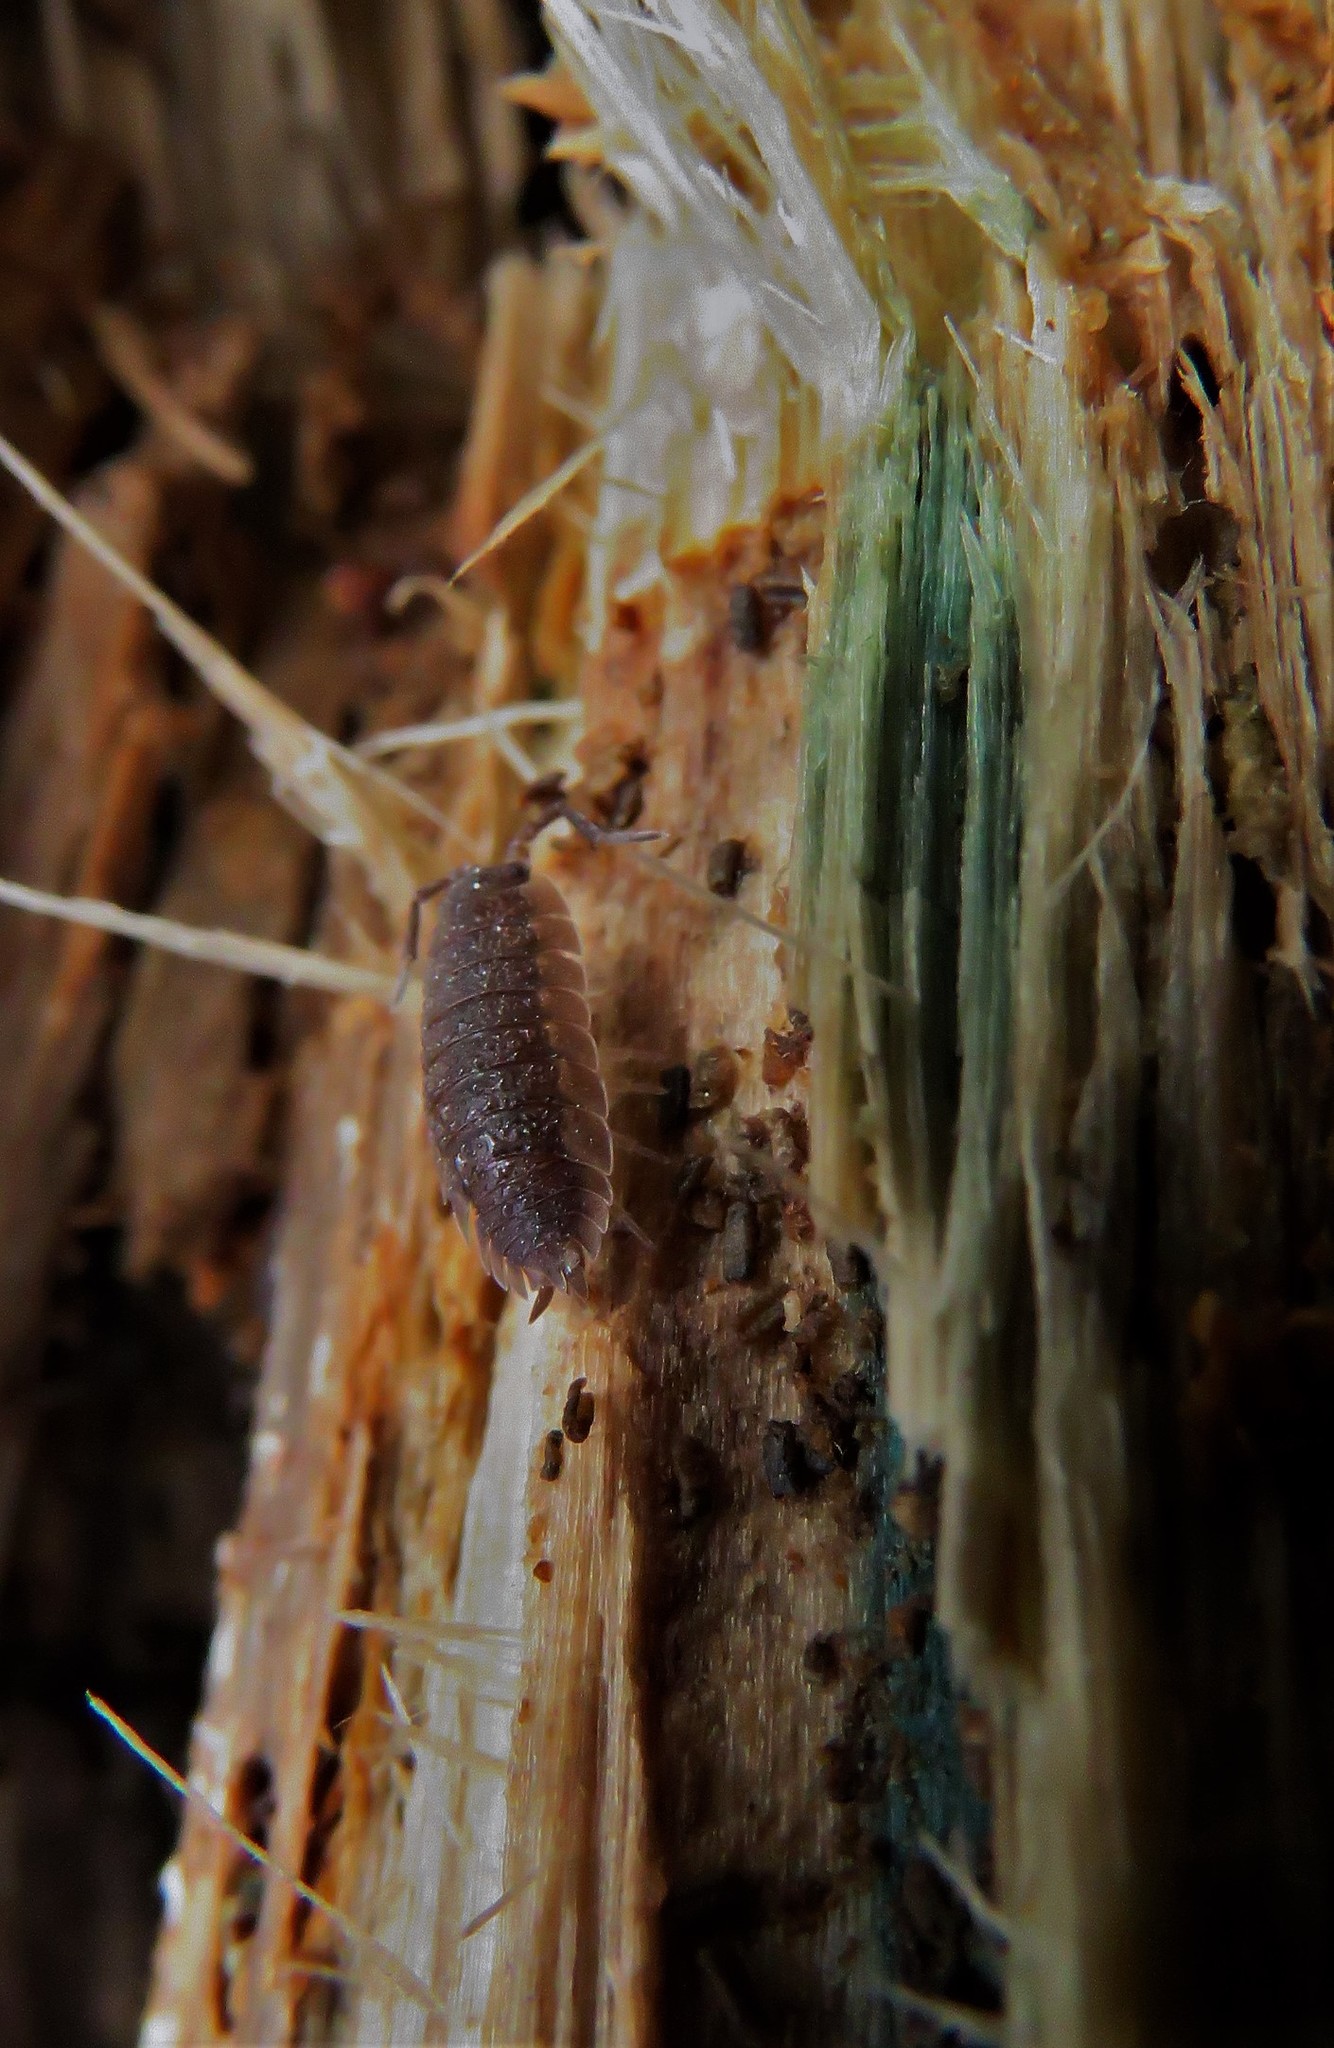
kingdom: Animalia
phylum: Arthropoda
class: Malacostraca
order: Isopoda
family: Porcellionidae
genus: Porcellio
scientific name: Porcellio scaber
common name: Common rough woodlouse
